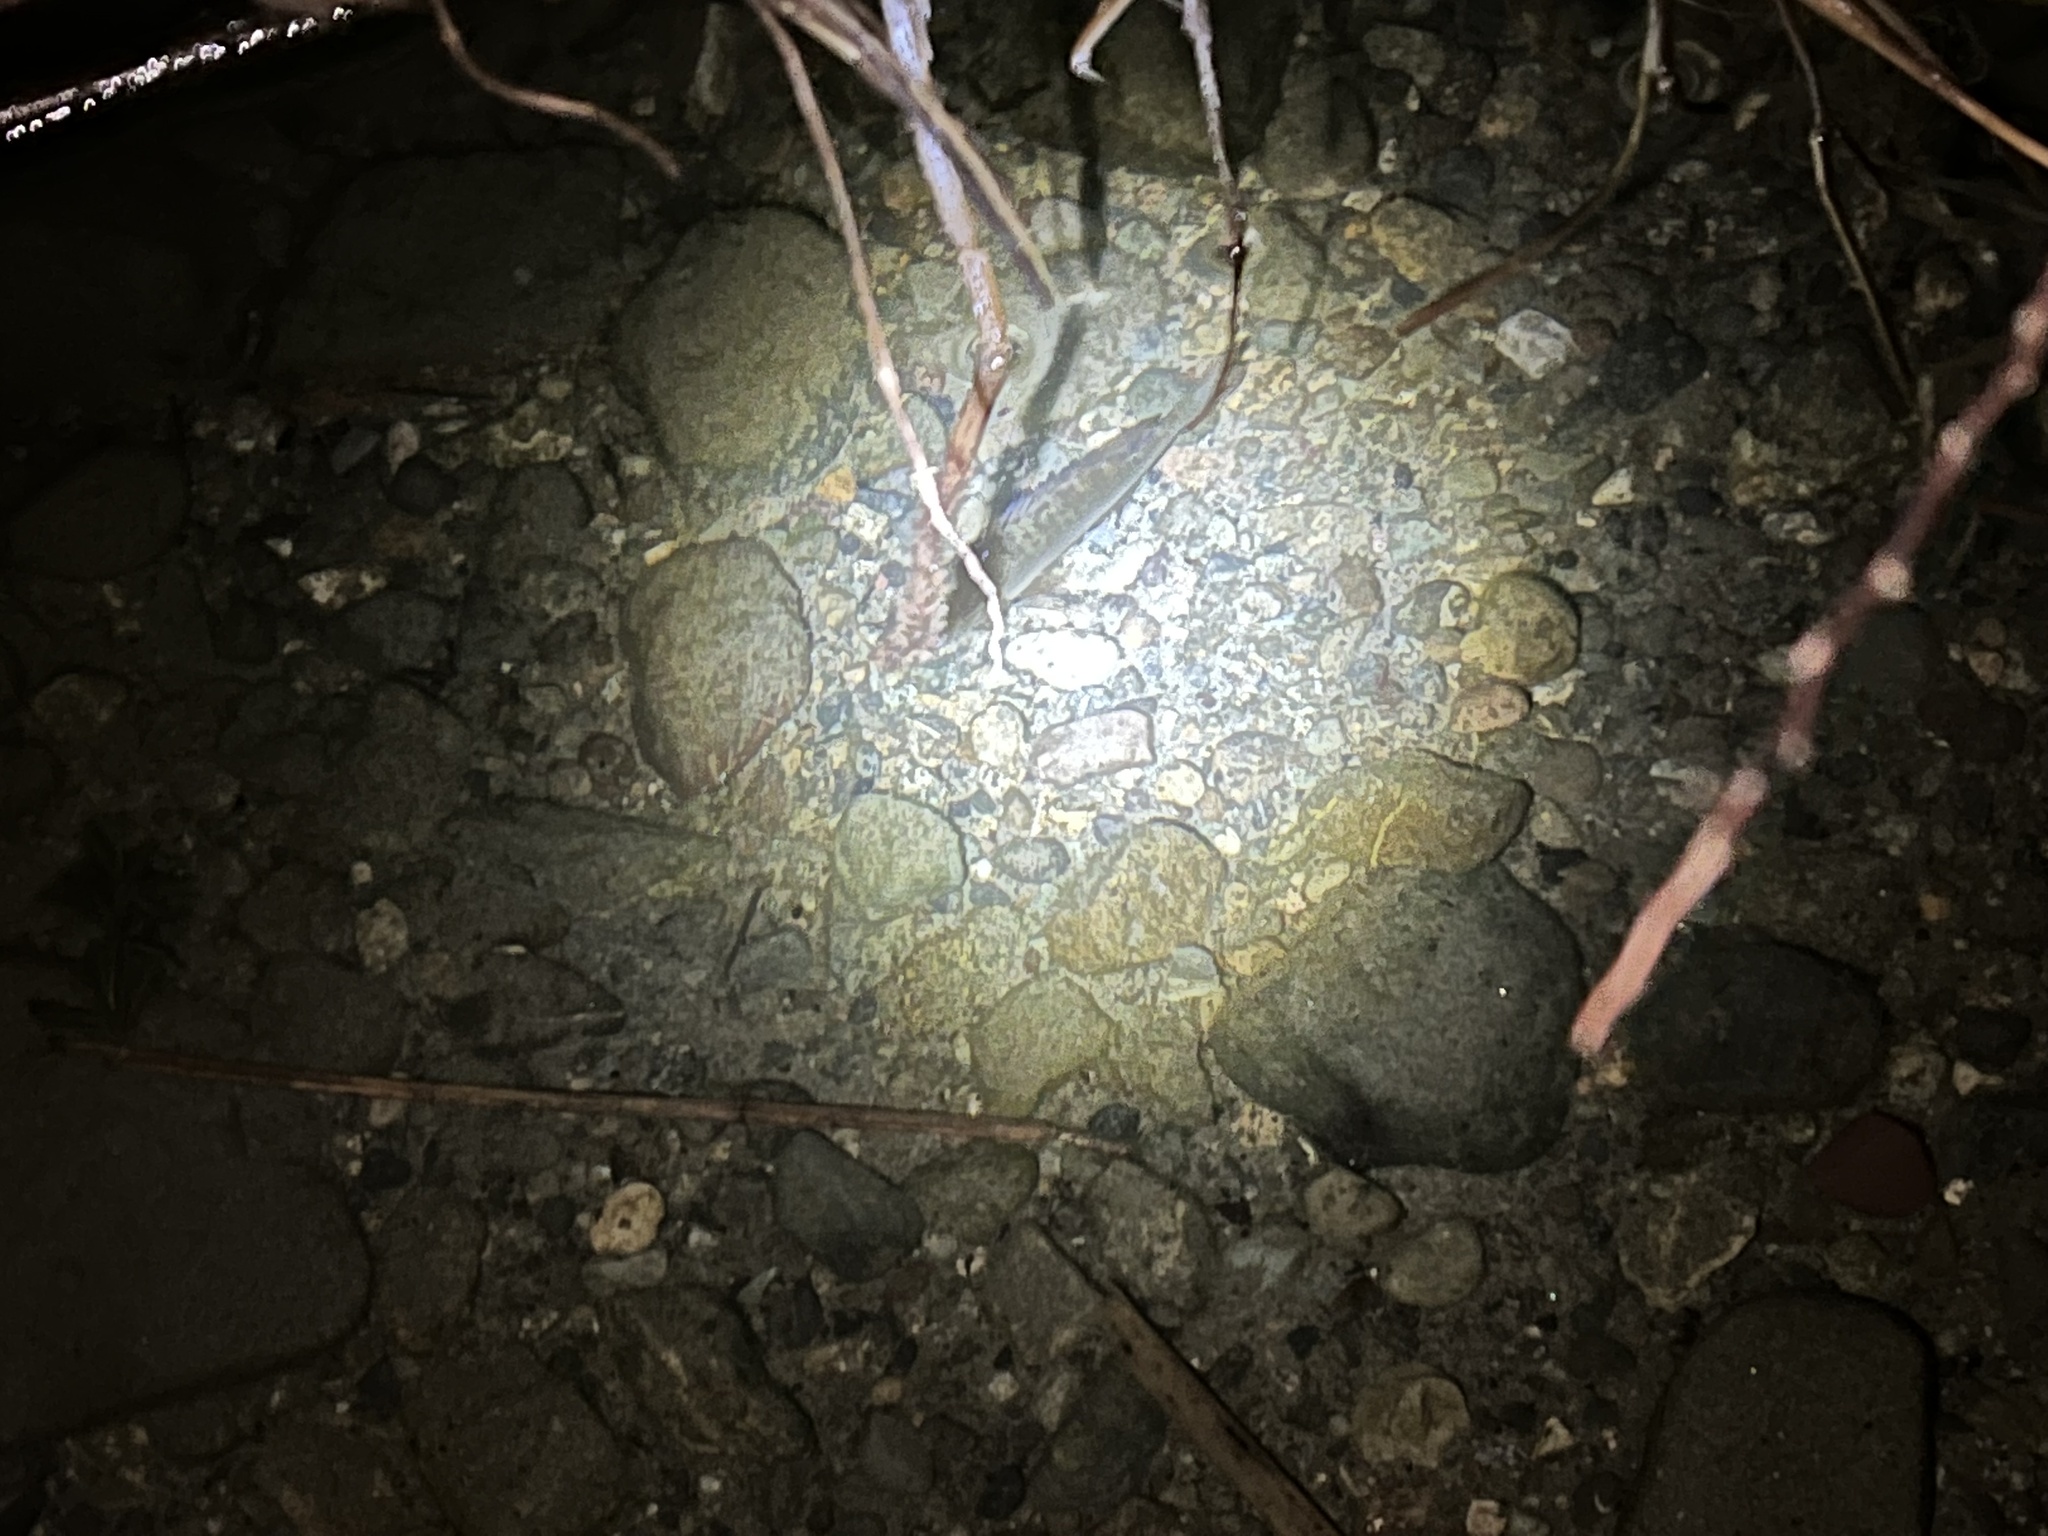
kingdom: Animalia
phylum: Chordata
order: Perciformes
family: Centrarchidae
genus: Lepomis
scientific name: Lepomis gibbosus
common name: Pumpkinseed
